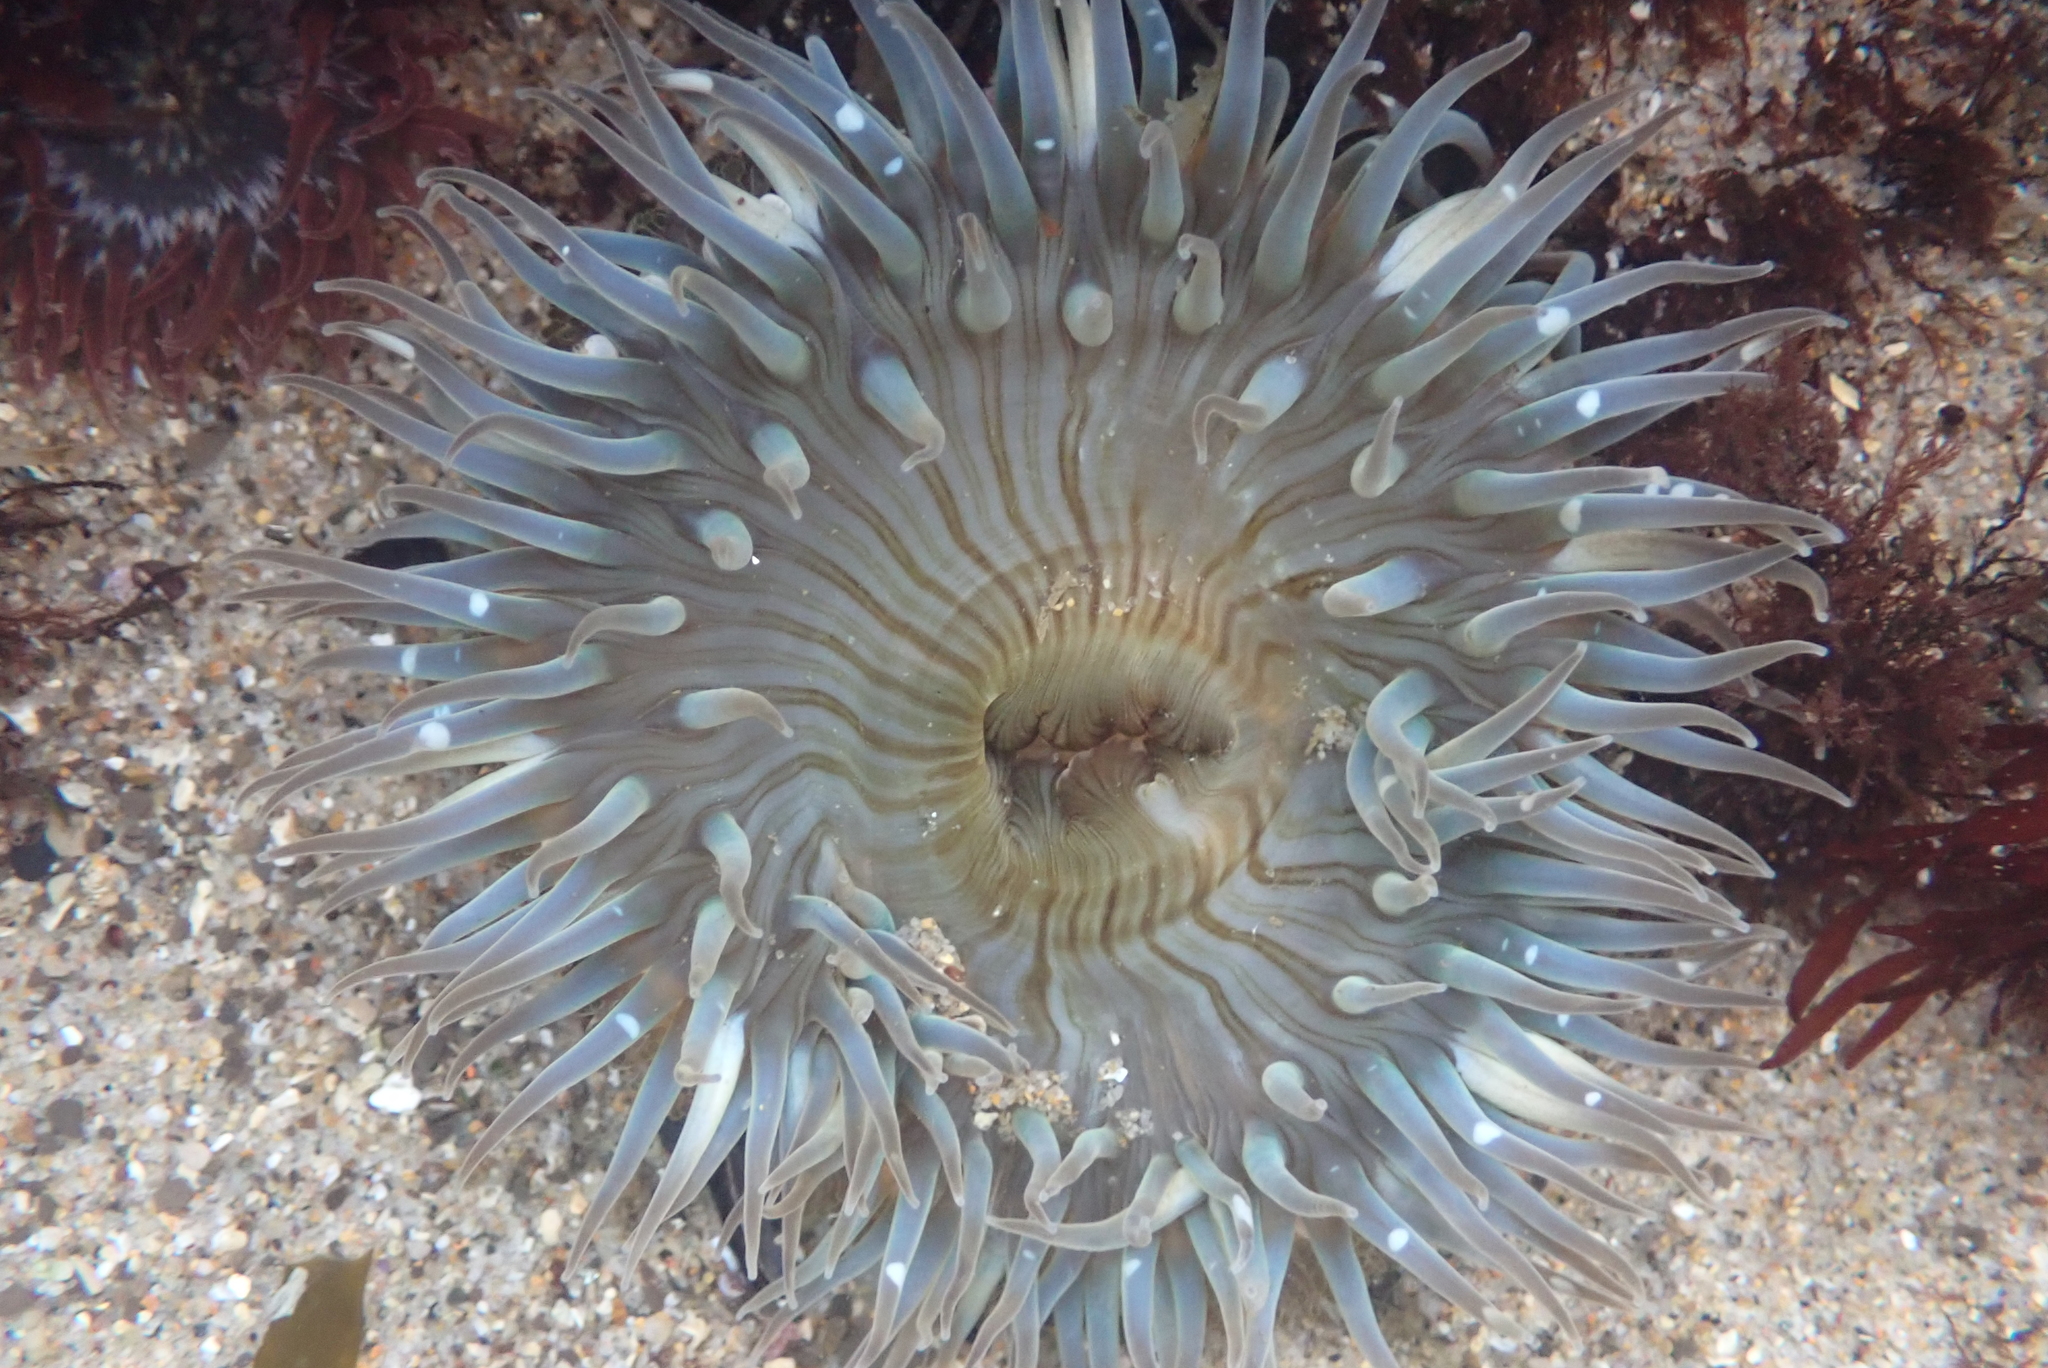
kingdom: Animalia
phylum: Cnidaria
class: Anthozoa
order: Actiniaria
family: Actiniidae
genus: Anthopleura
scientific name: Anthopleura sola
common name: Sun anemone
